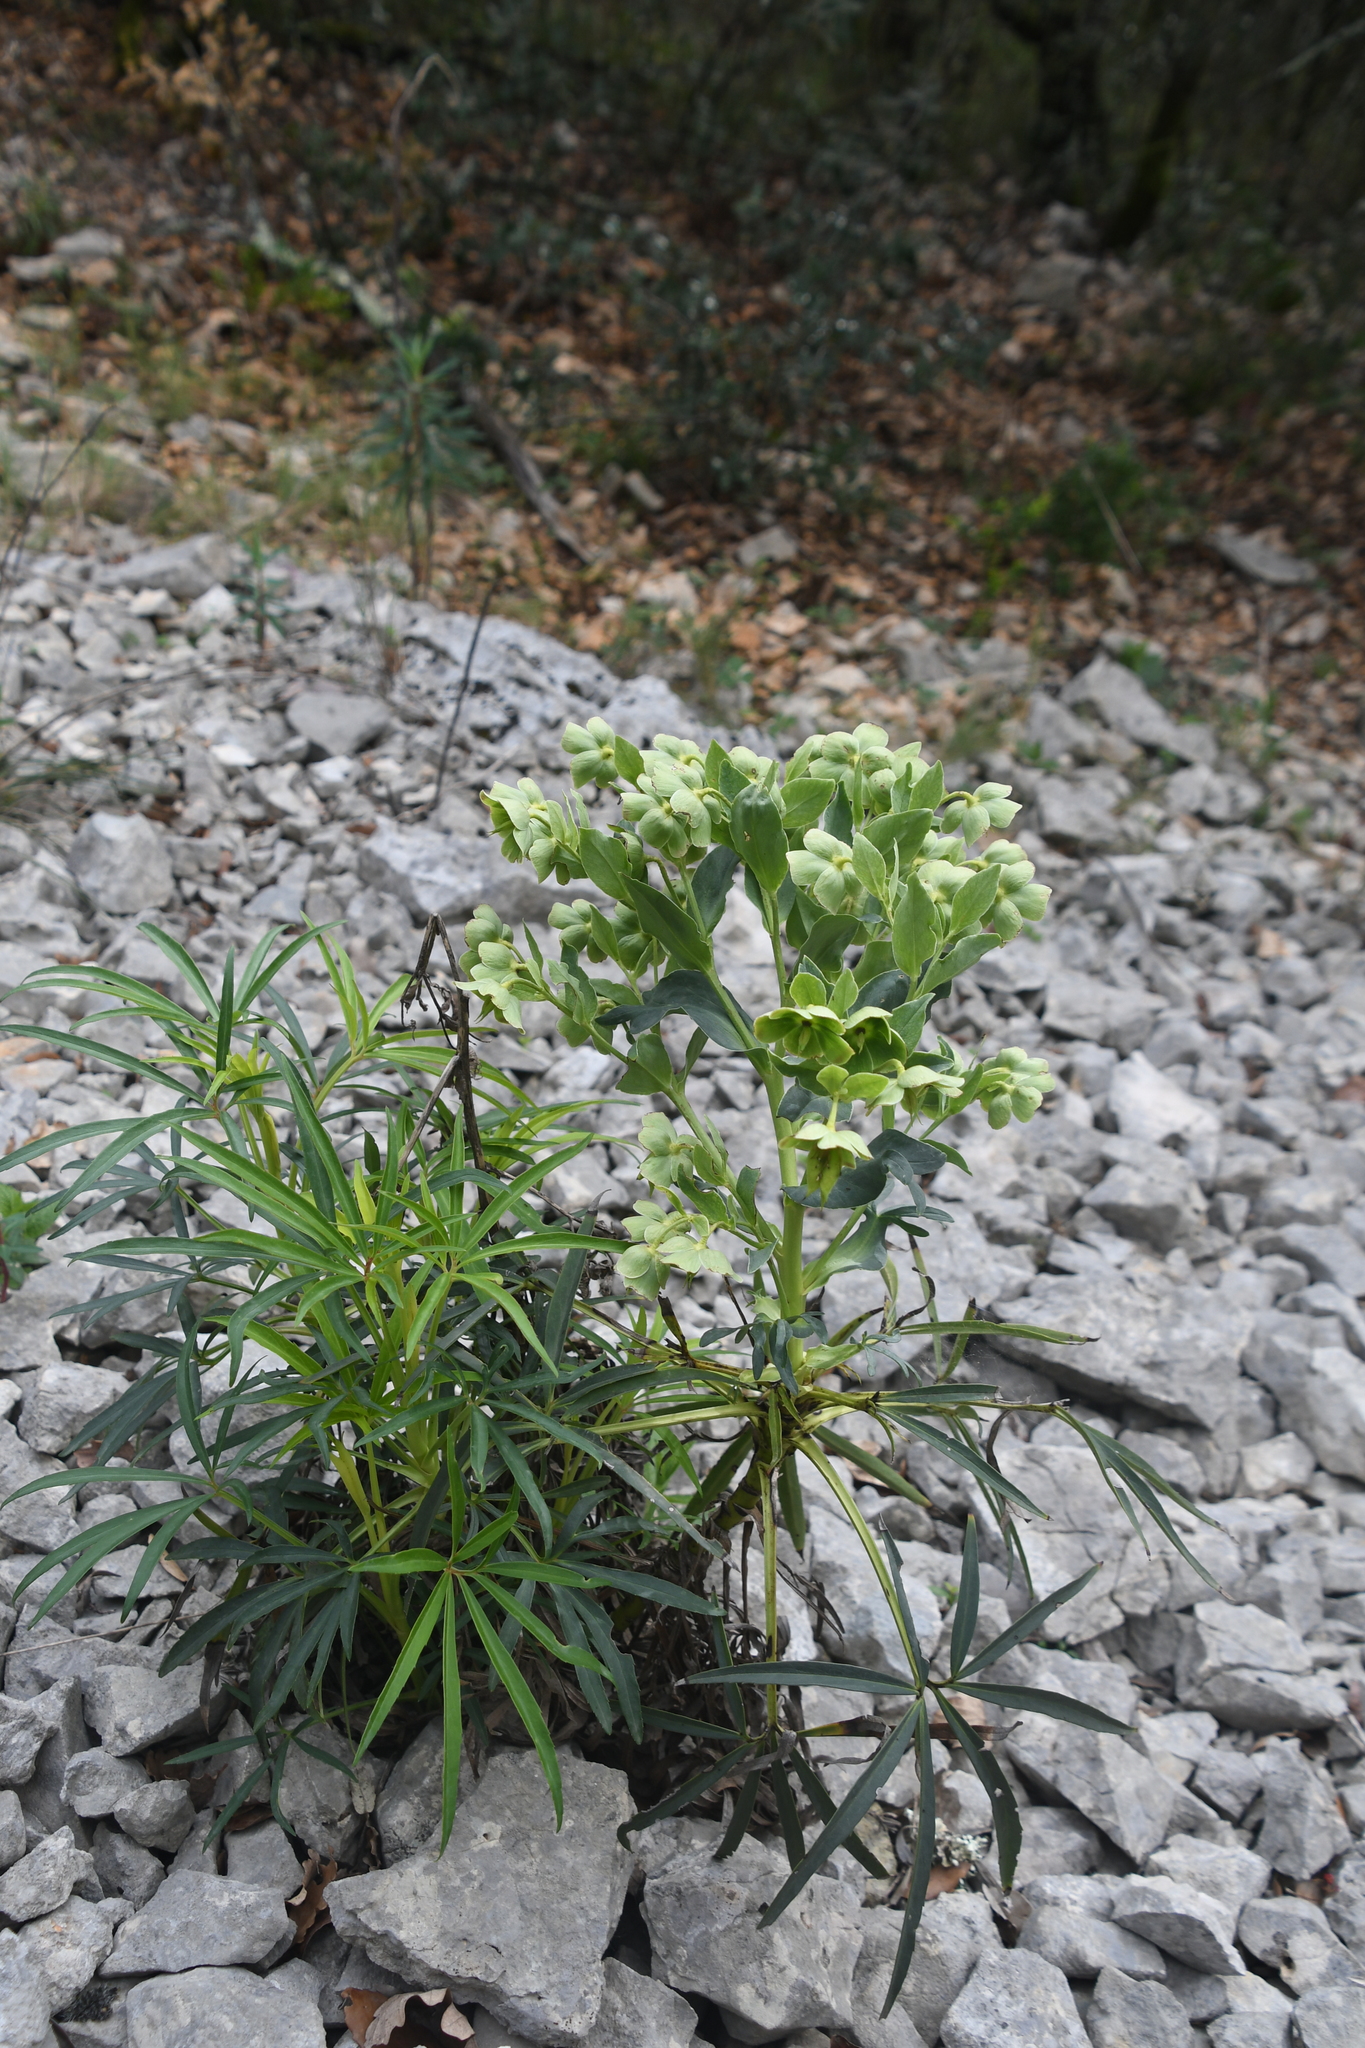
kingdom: Plantae
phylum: Tracheophyta
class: Magnoliopsida
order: Ranunculales
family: Ranunculaceae
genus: Helleborus
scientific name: Helleborus foetidus
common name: Stinking hellebore
